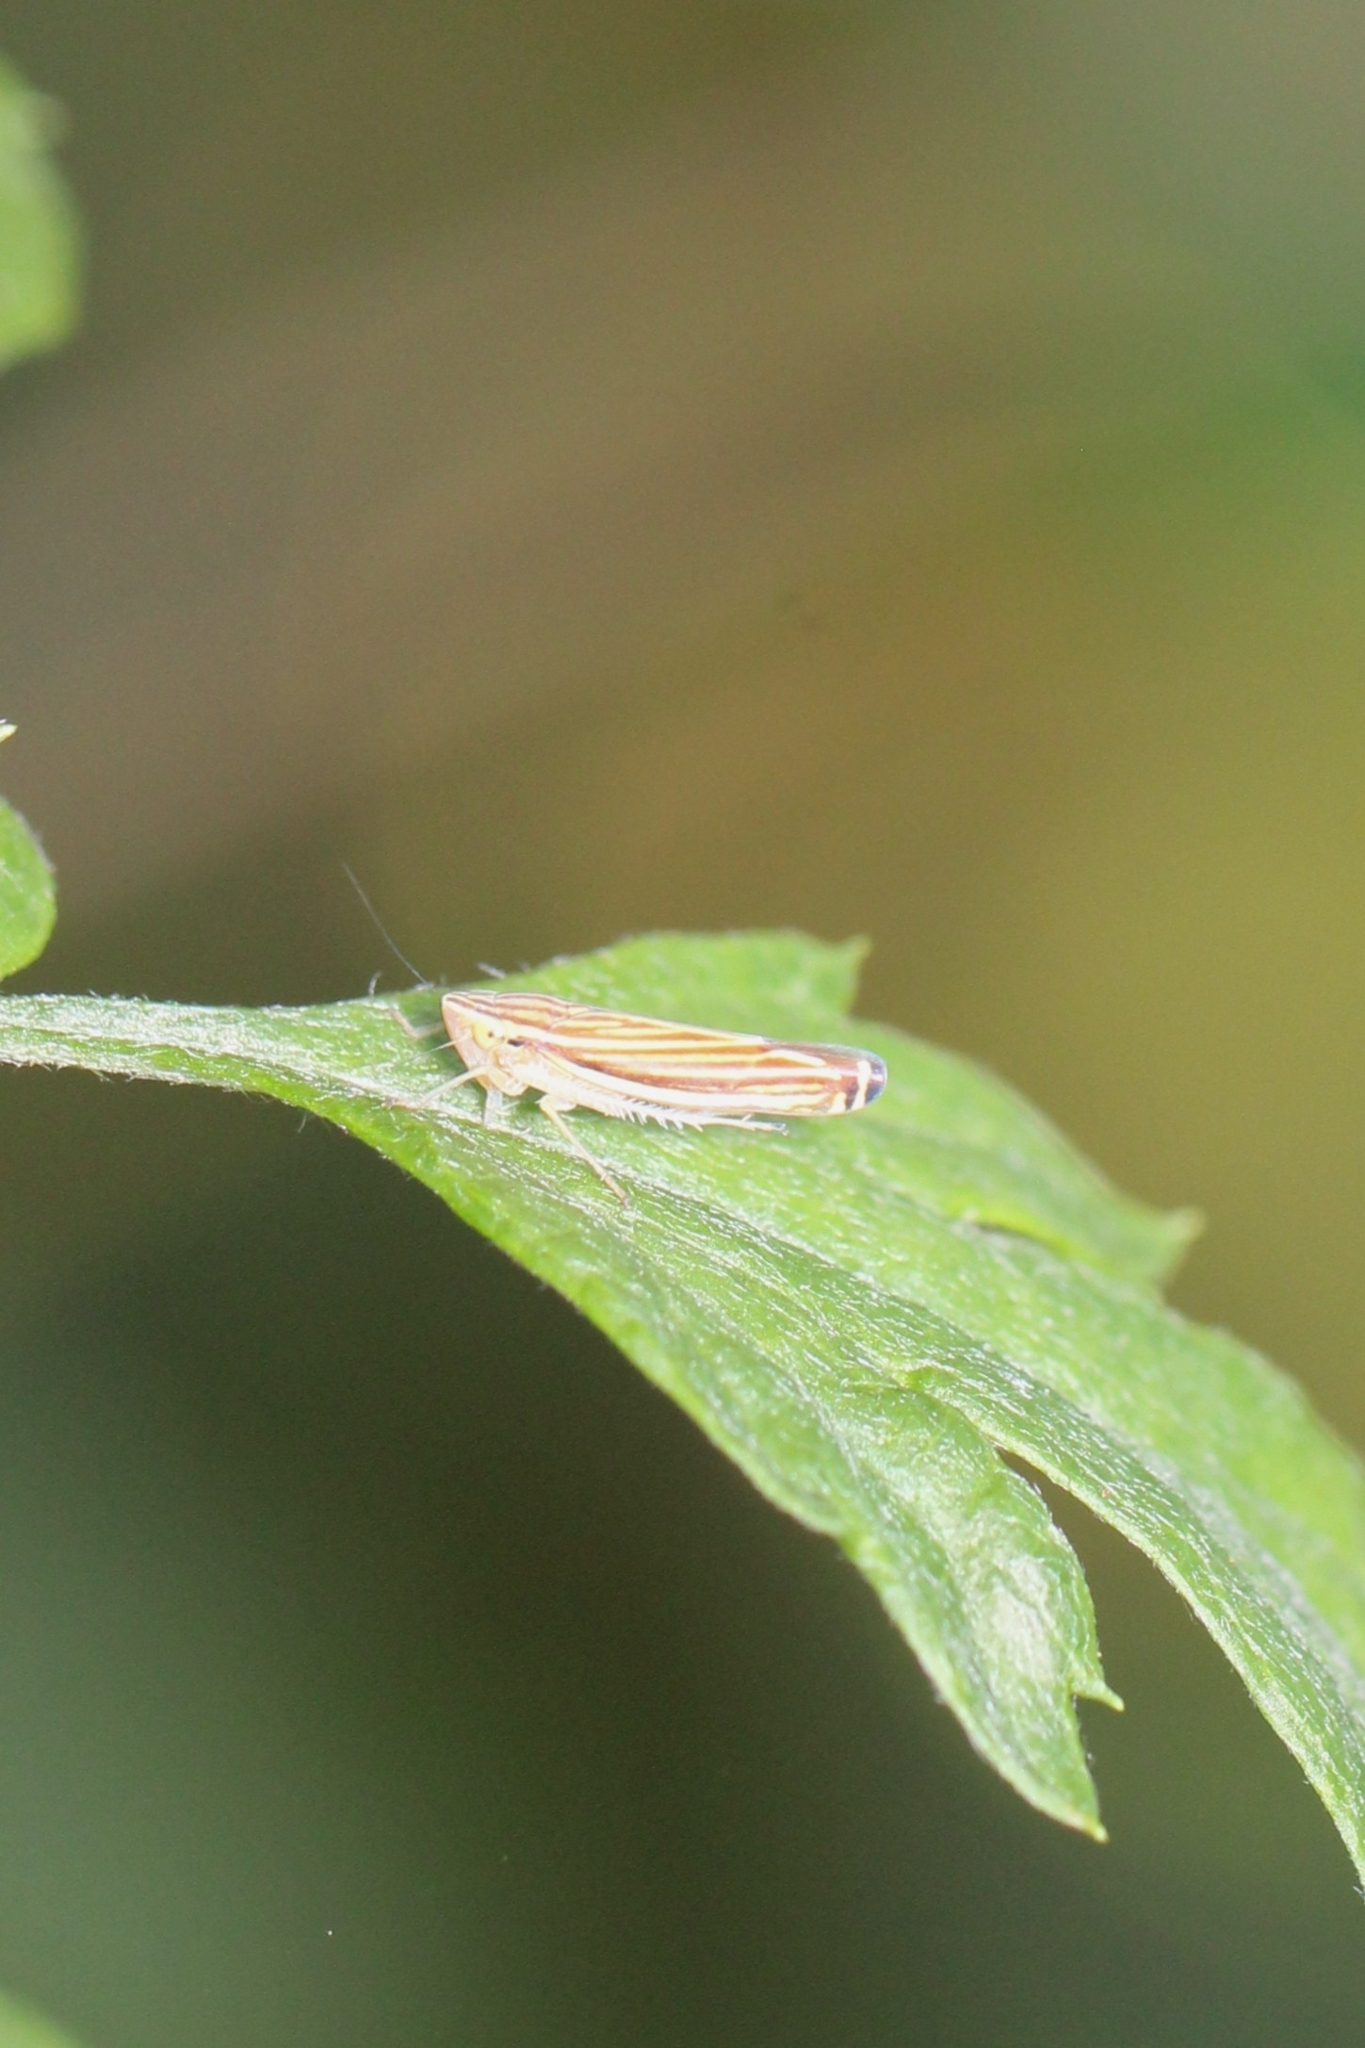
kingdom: Animalia
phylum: Arthropoda
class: Insecta
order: Hemiptera
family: Cicadellidae
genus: Sibovia
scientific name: Sibovia occatoria
